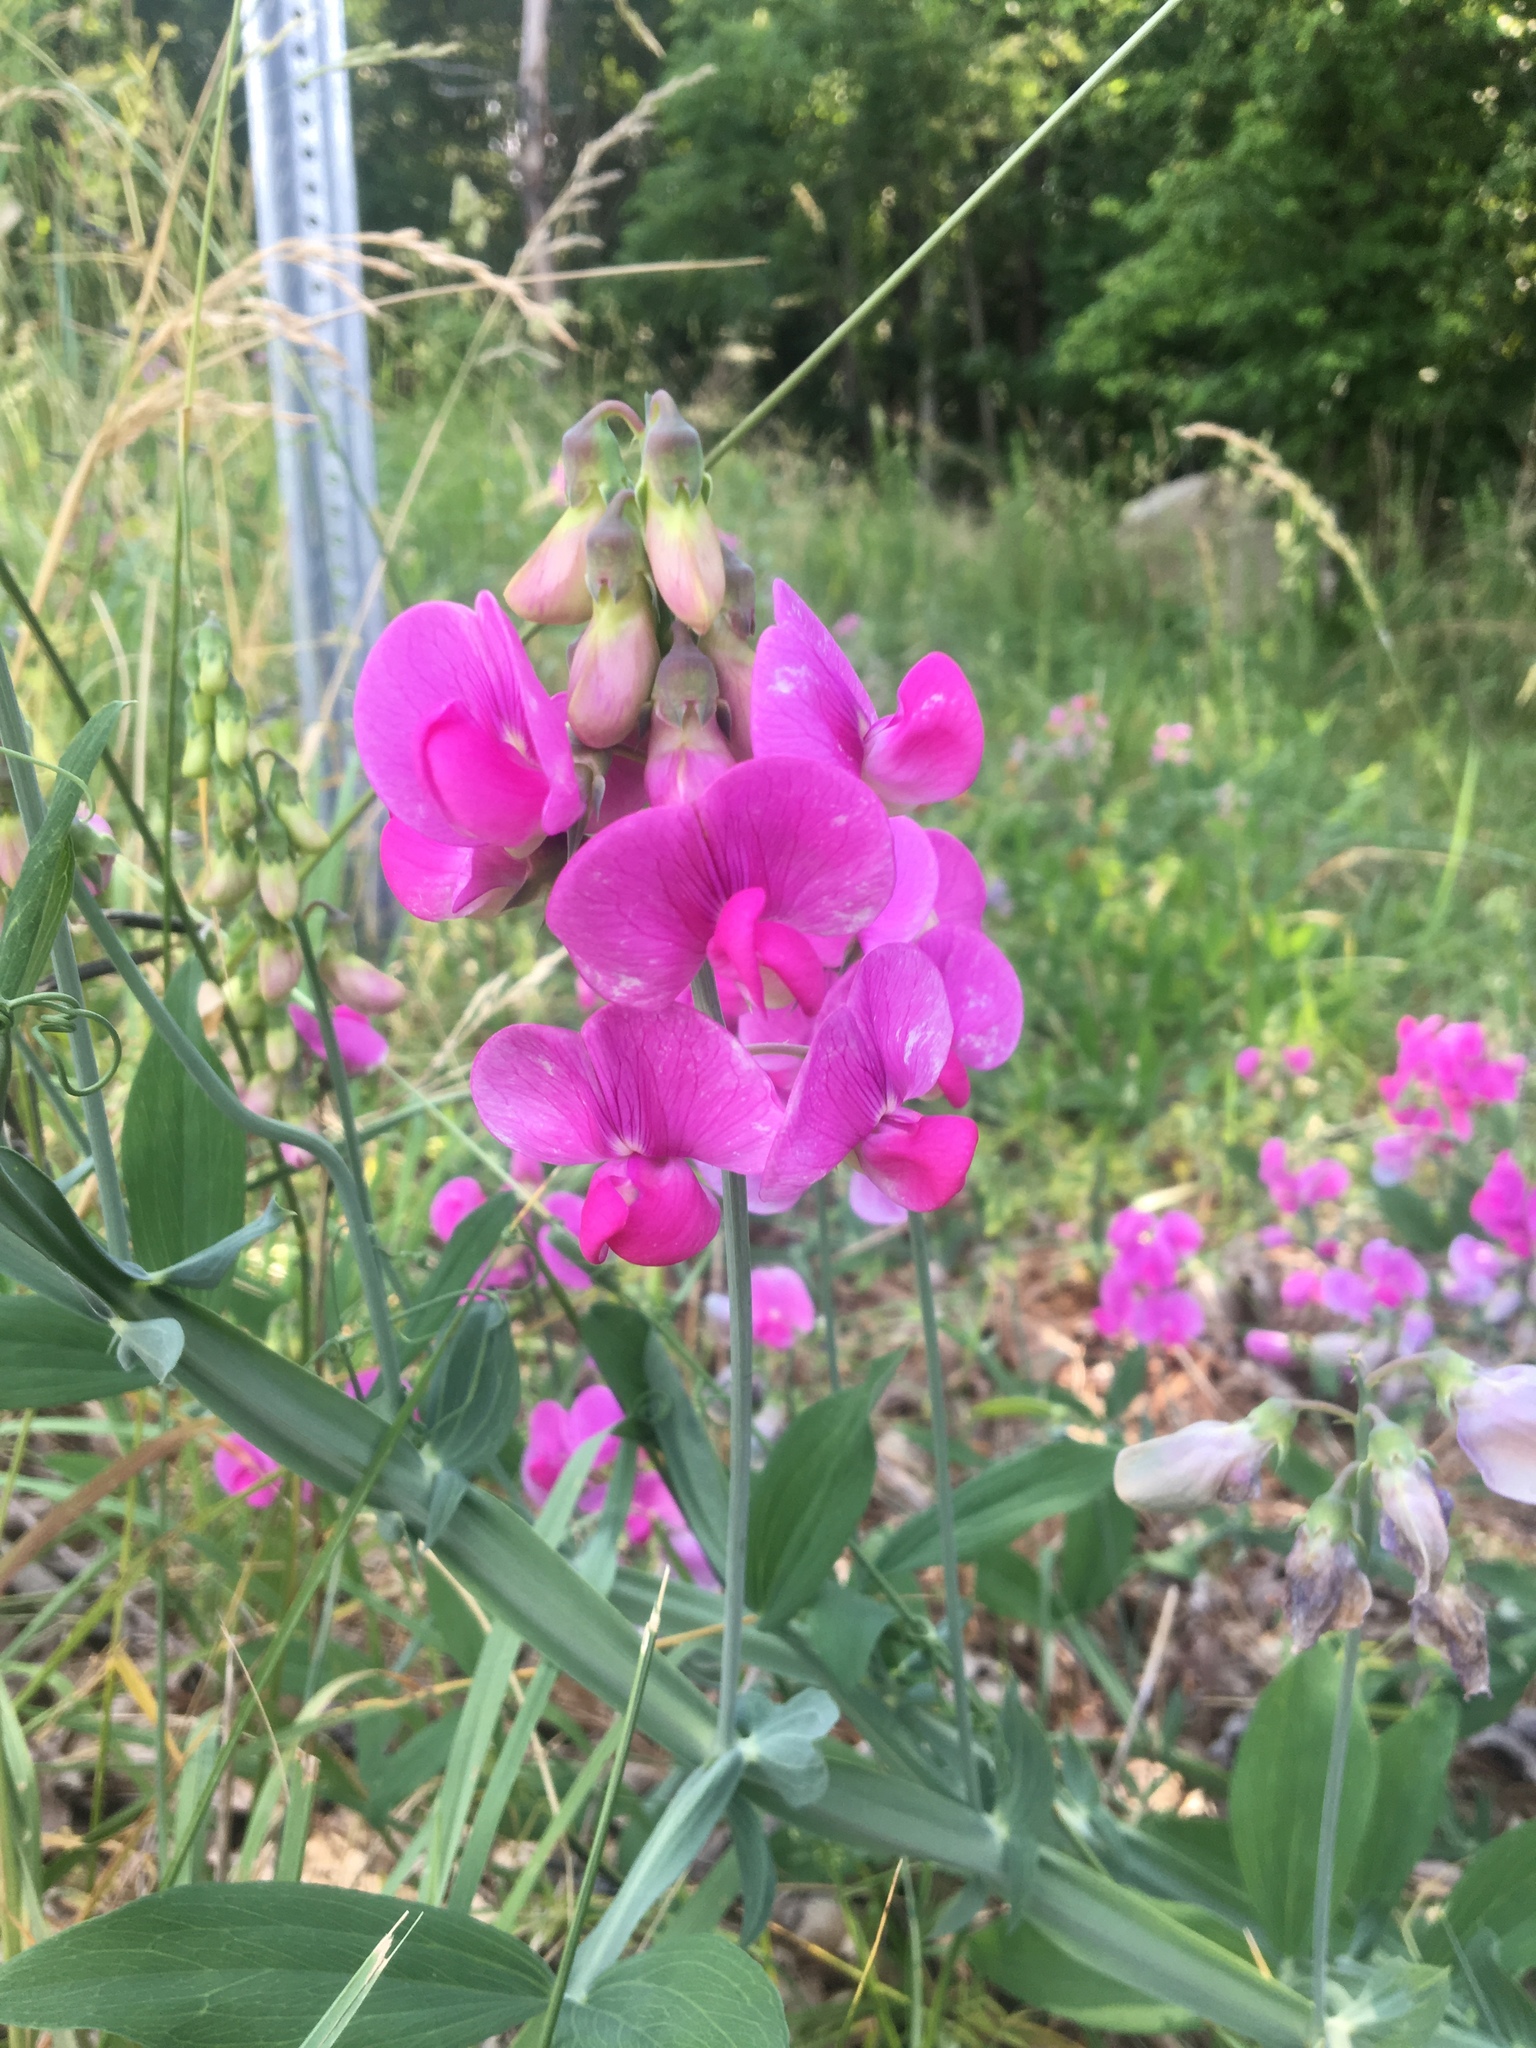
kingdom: Plantae
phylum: Tracheophyta
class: Magnoliopsida
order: Fabales
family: Fabaceae
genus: Lathyrus
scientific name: Lathyrus latifolius
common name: Perennial pea
